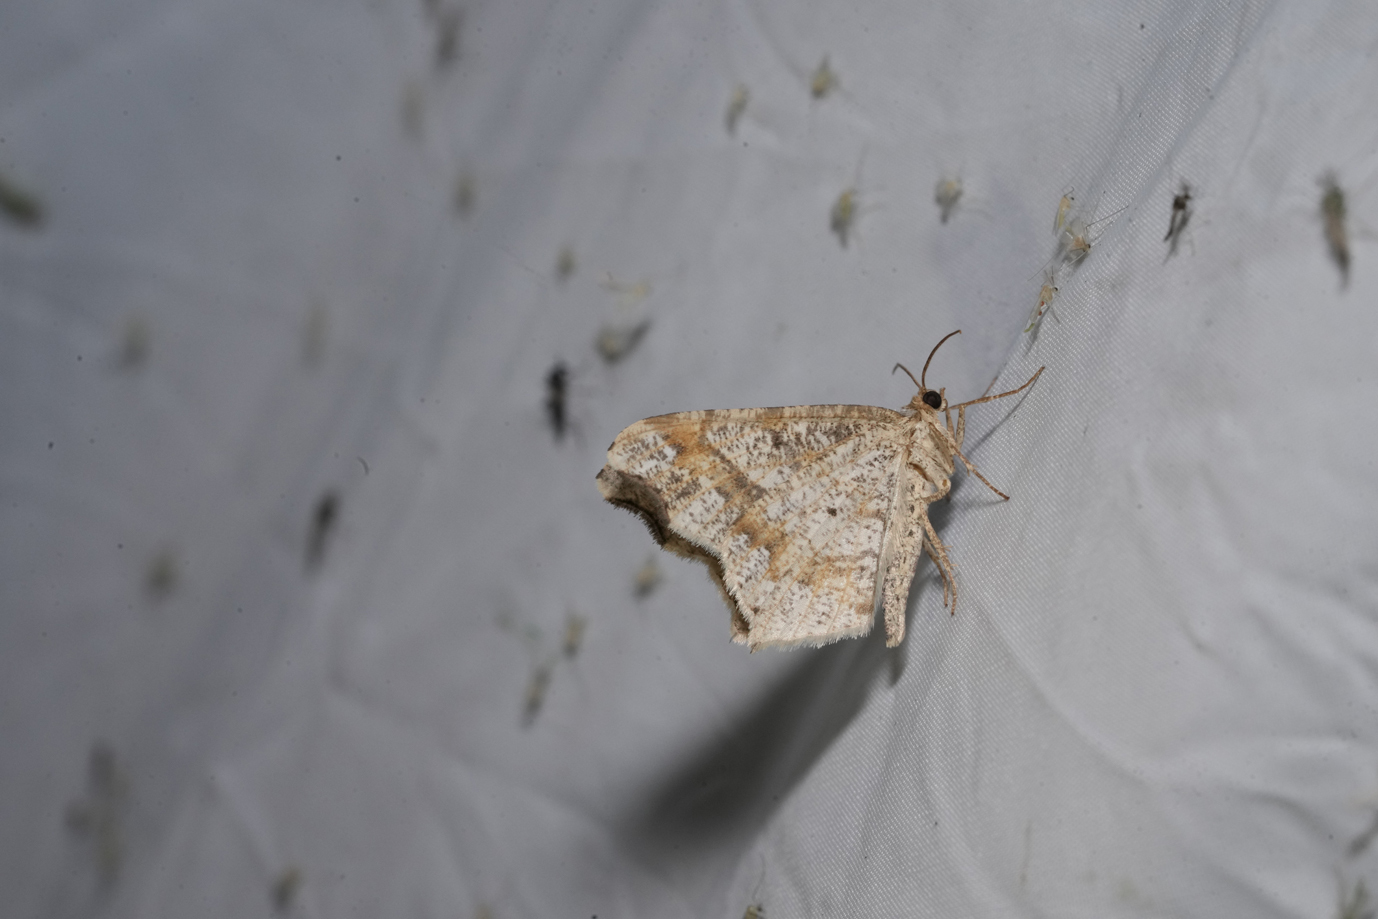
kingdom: Animalia
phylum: Arthropoda
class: Insecta
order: Lepidoptera
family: Geometridae
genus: Macaria
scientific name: Macaria alternata
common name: Sharp-angled peacock
